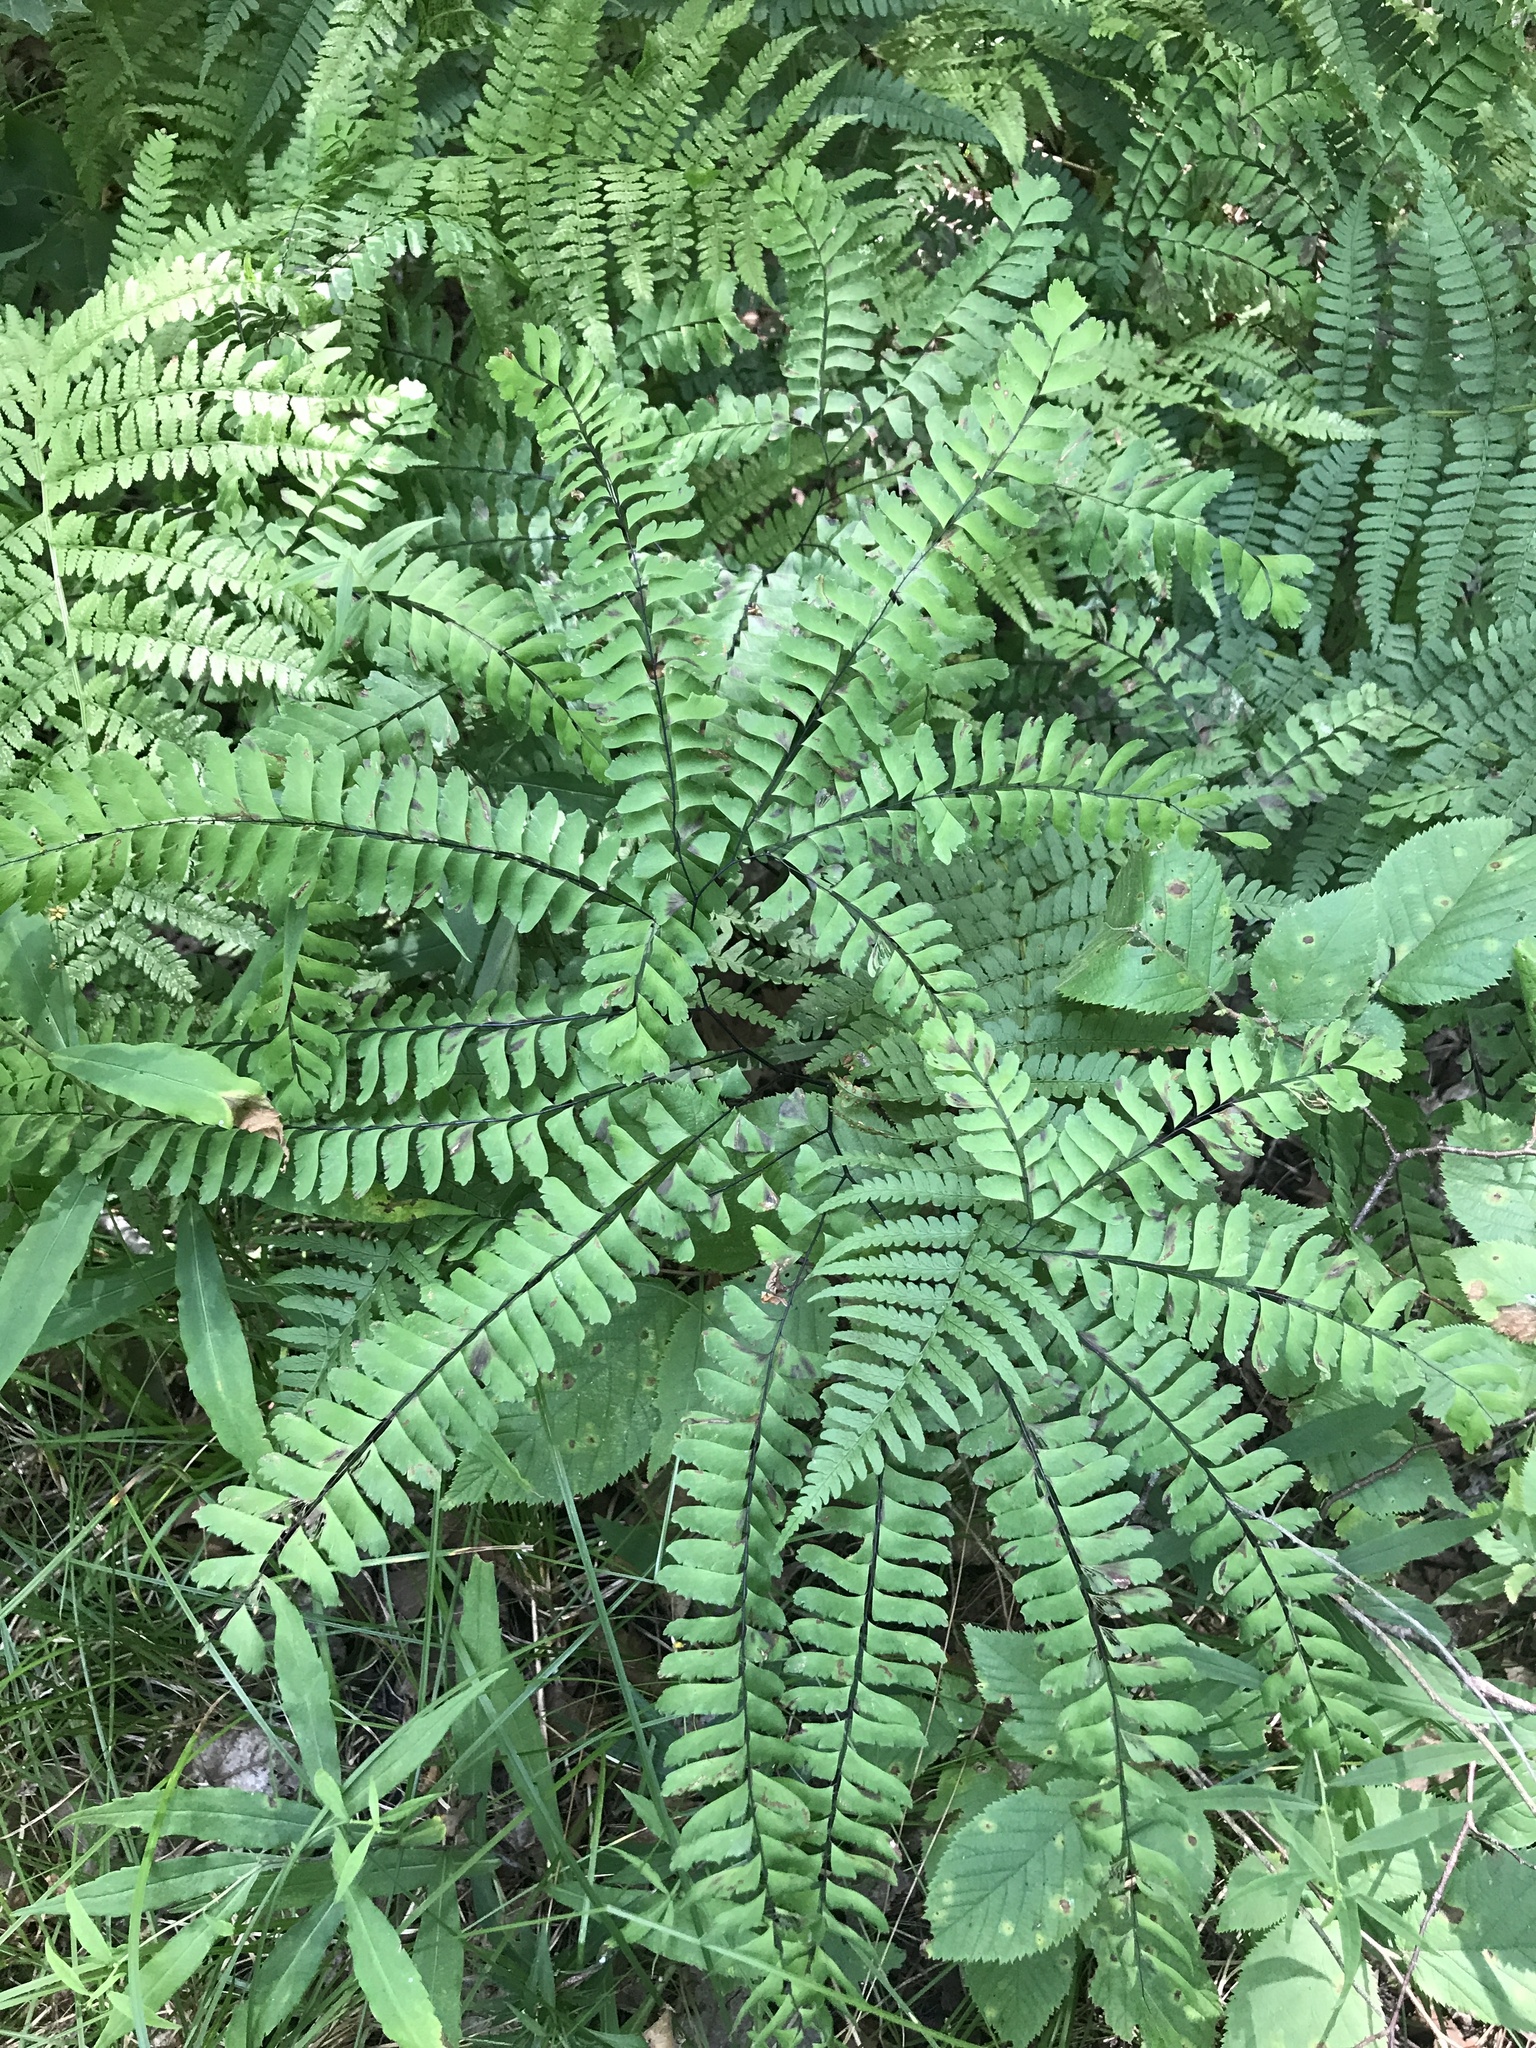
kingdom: Plantae
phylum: Tracheophyta
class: Polypodiopsida
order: Polypodiales
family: Pteridaceae
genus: Adiantum
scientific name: Adiantum pedatum
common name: Five-finger fern
